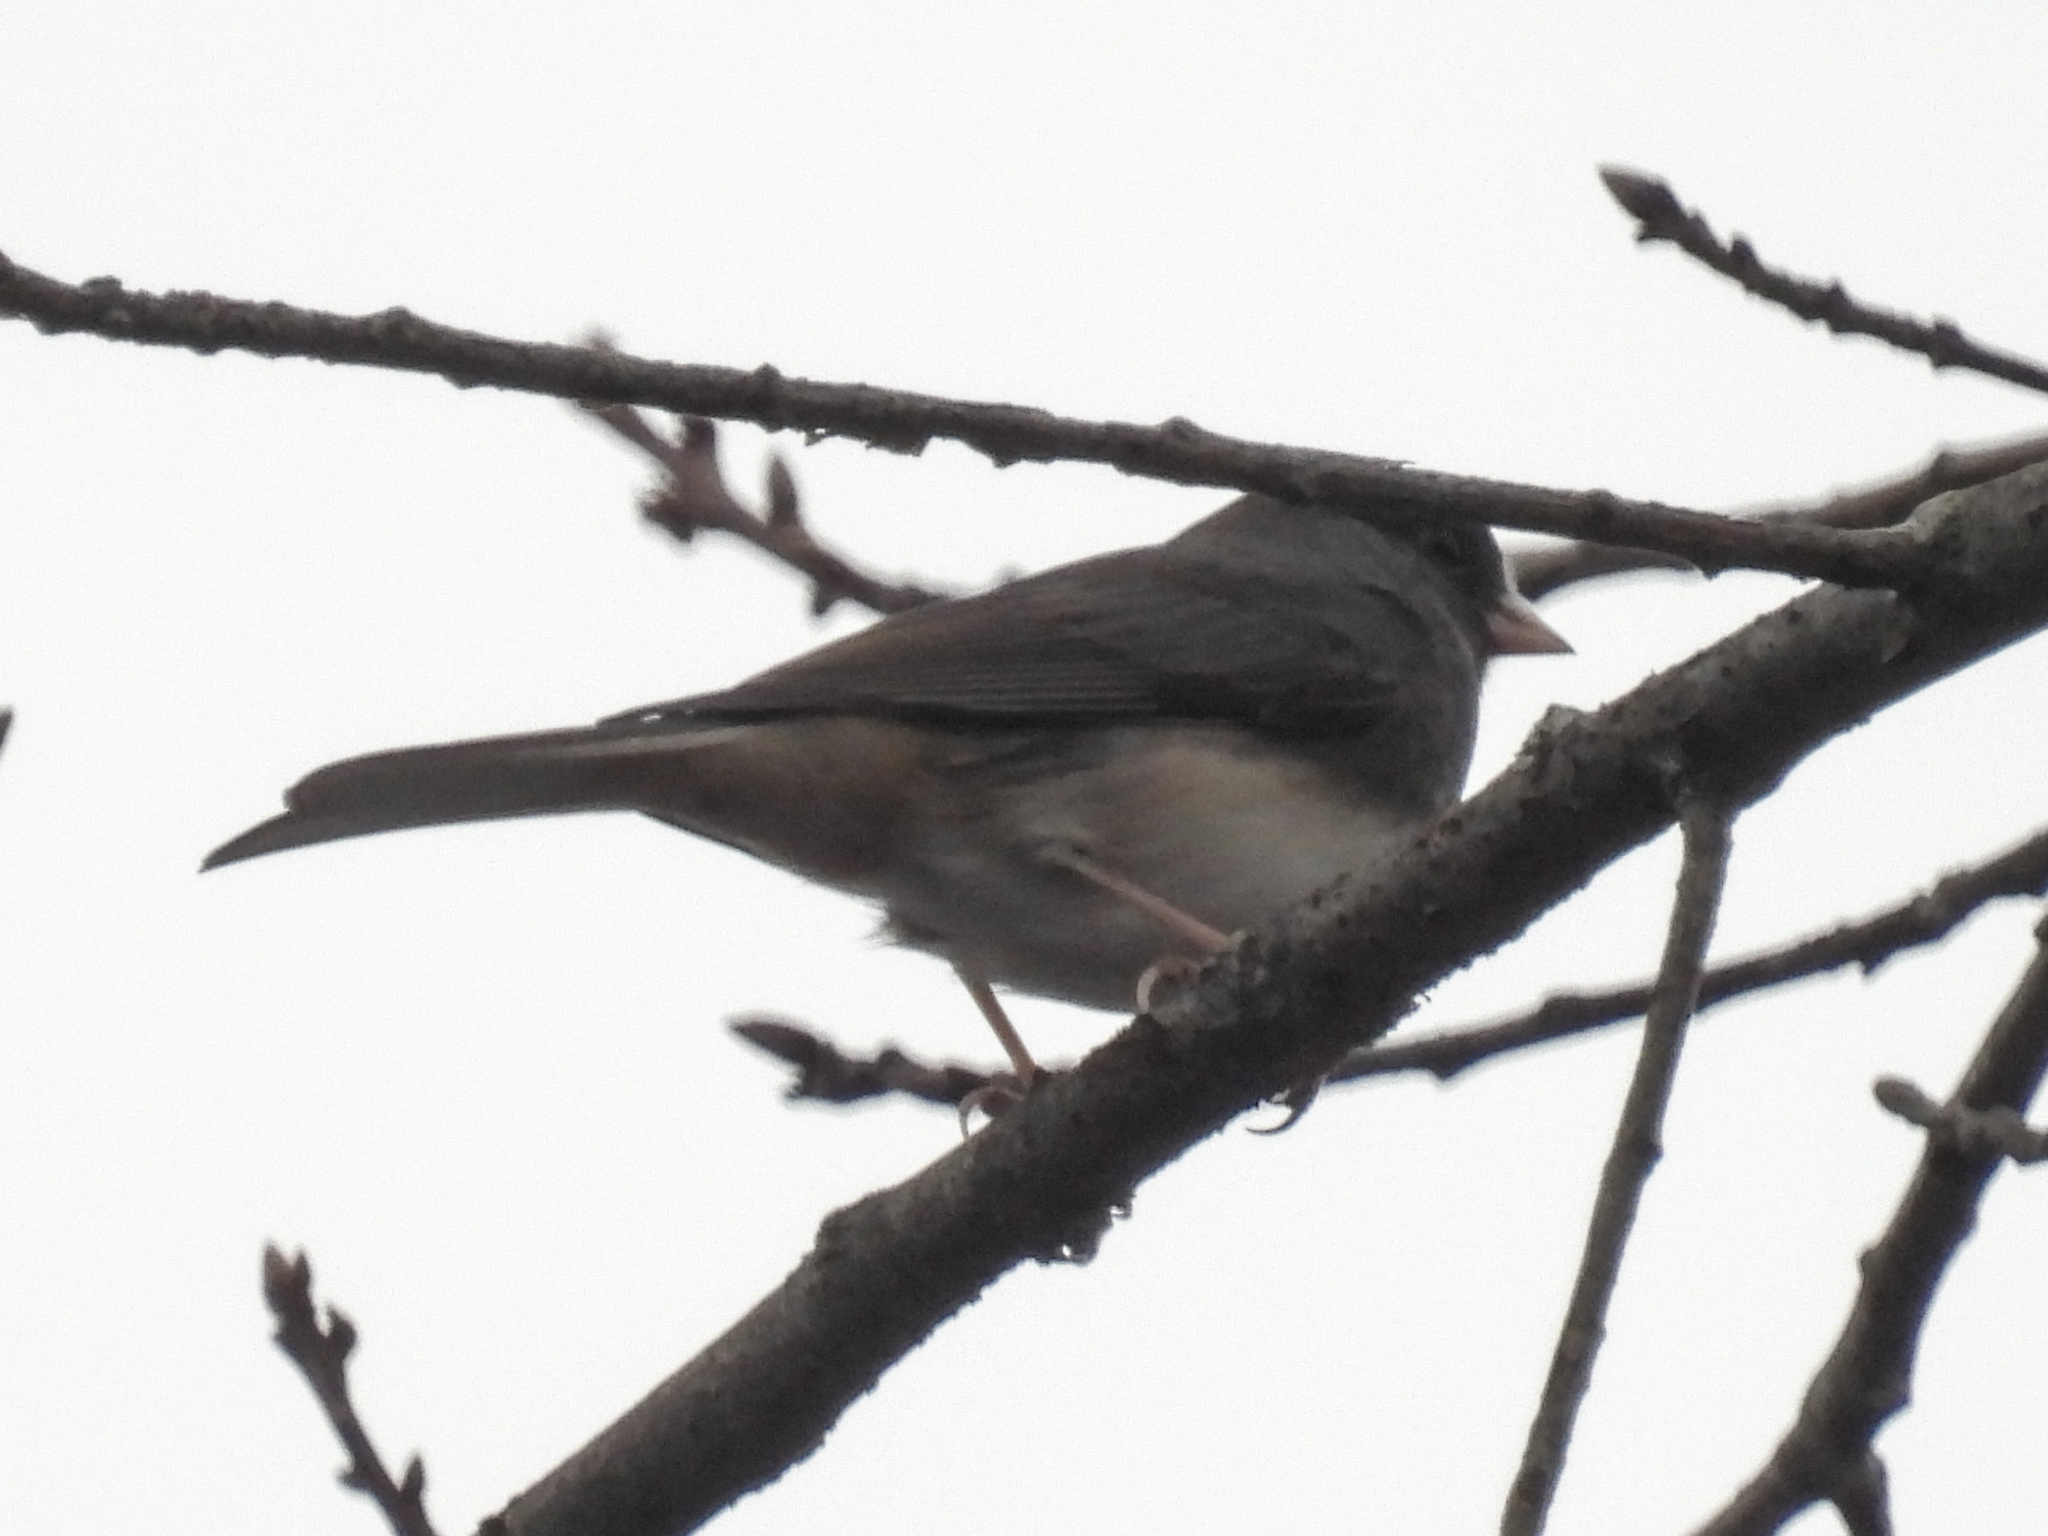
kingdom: Animalia
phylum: Chordata
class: Aves
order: Passeriformes
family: Passerellidae
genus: Junco
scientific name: Junco hyemalis
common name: Dark-eyed junco
